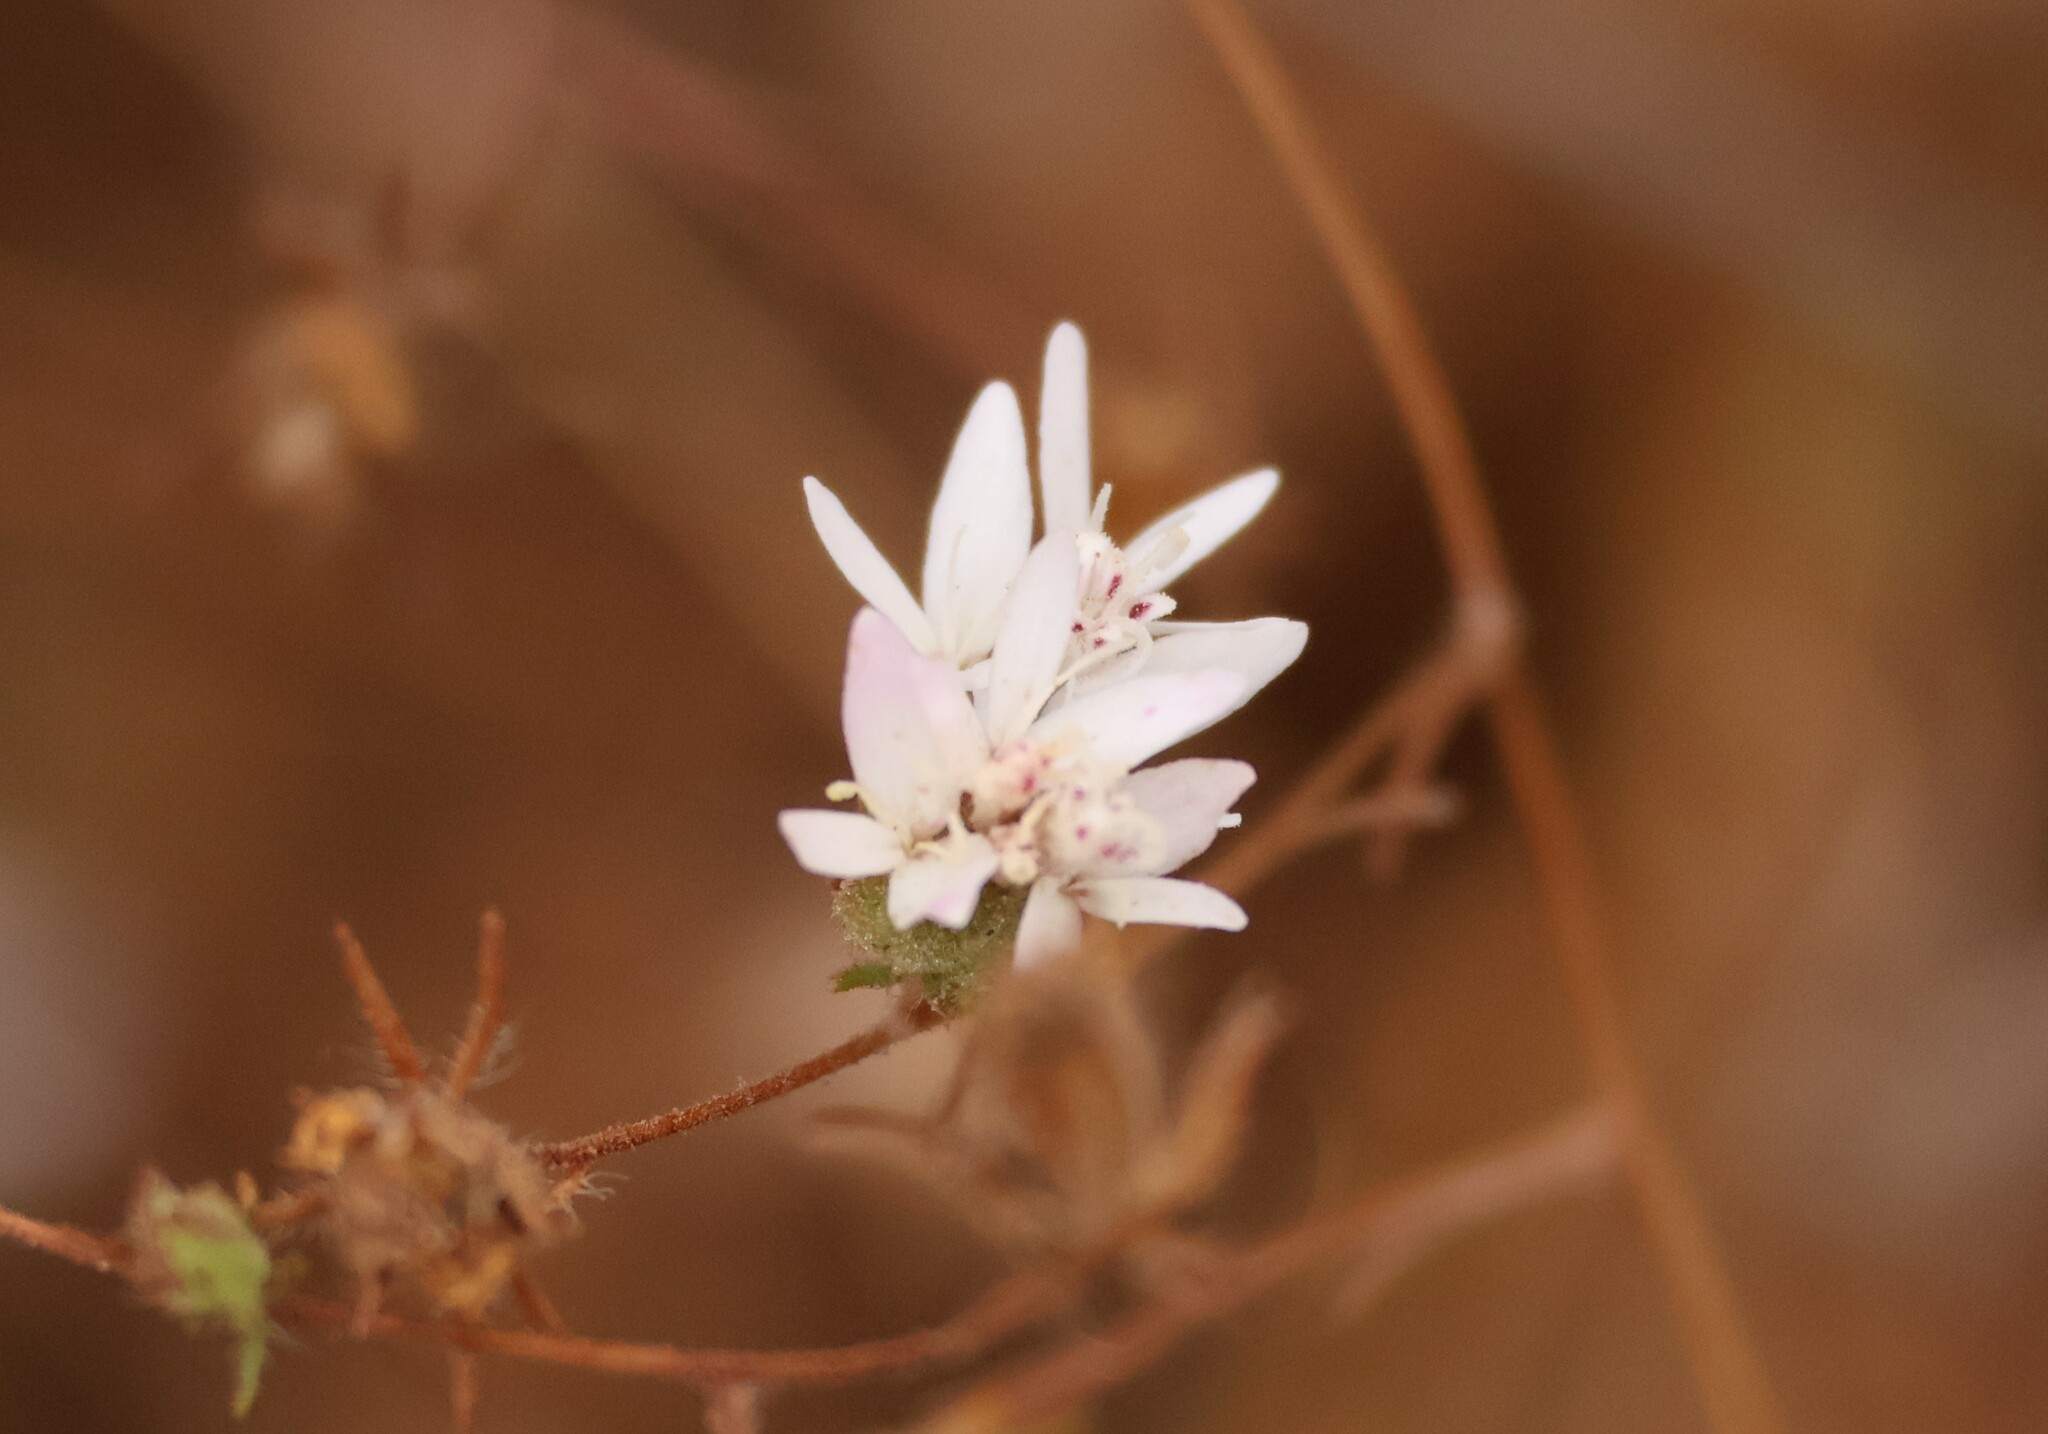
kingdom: Plantae
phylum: Tracheophyta
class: Magnoliopsida
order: Asterales
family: Asteraceae
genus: Osmadenia
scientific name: Osmadenia tenella
